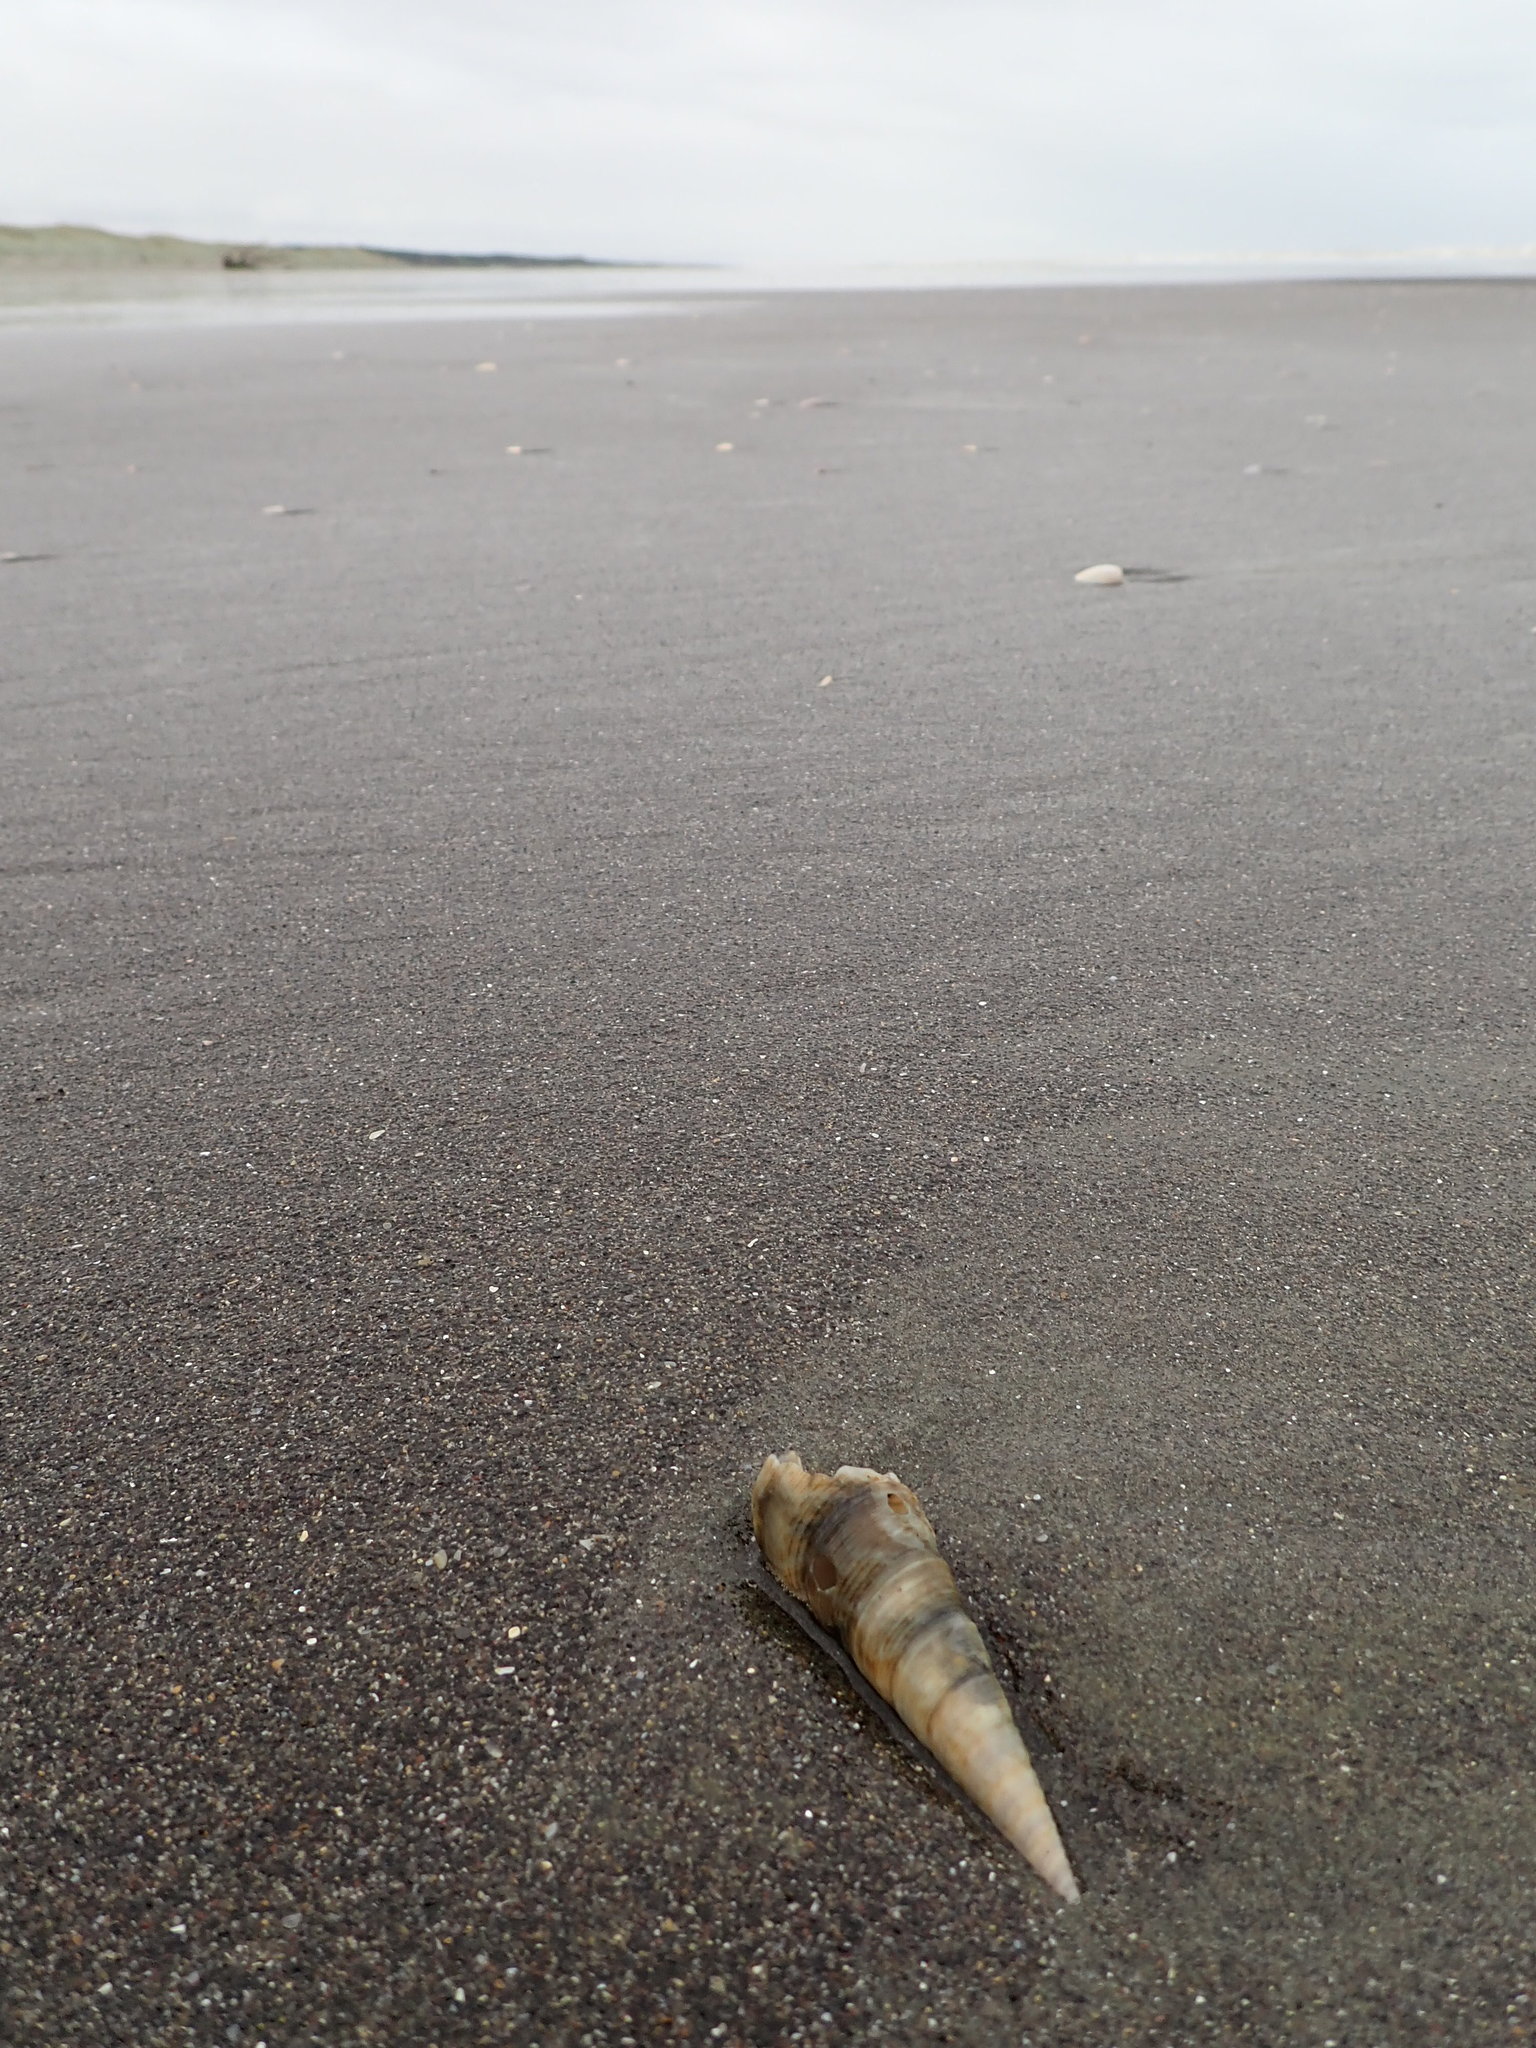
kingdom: Animalia
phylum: Mollusca
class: Gastropoda
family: Turritellidae
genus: Maoricolpus
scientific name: Maoricolpus roseus
